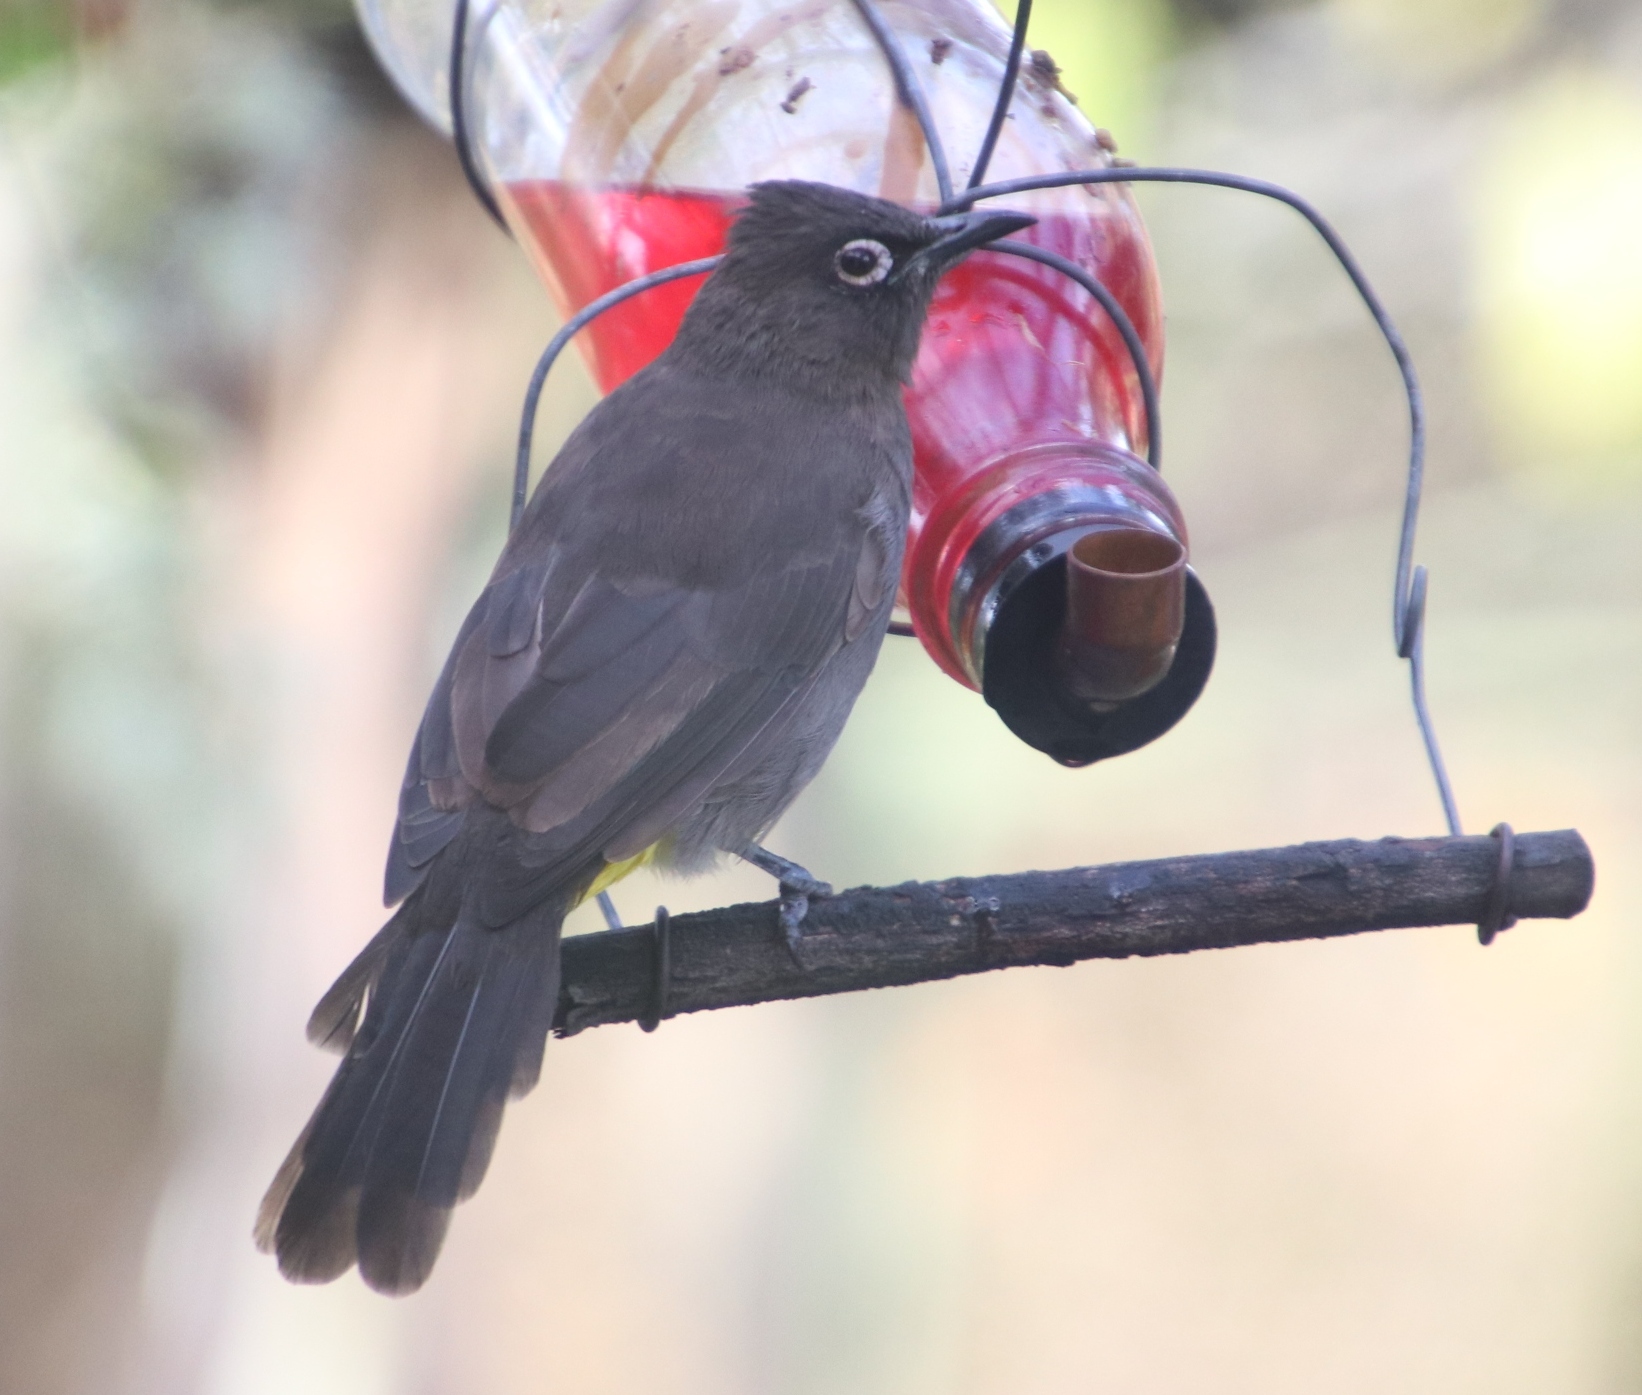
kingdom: Animalia
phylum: Chordata
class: Aves
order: Passeriformes
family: Pycnonotidae
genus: Pycnonotus
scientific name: Pycnonotus capensis
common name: Cape bulbul
